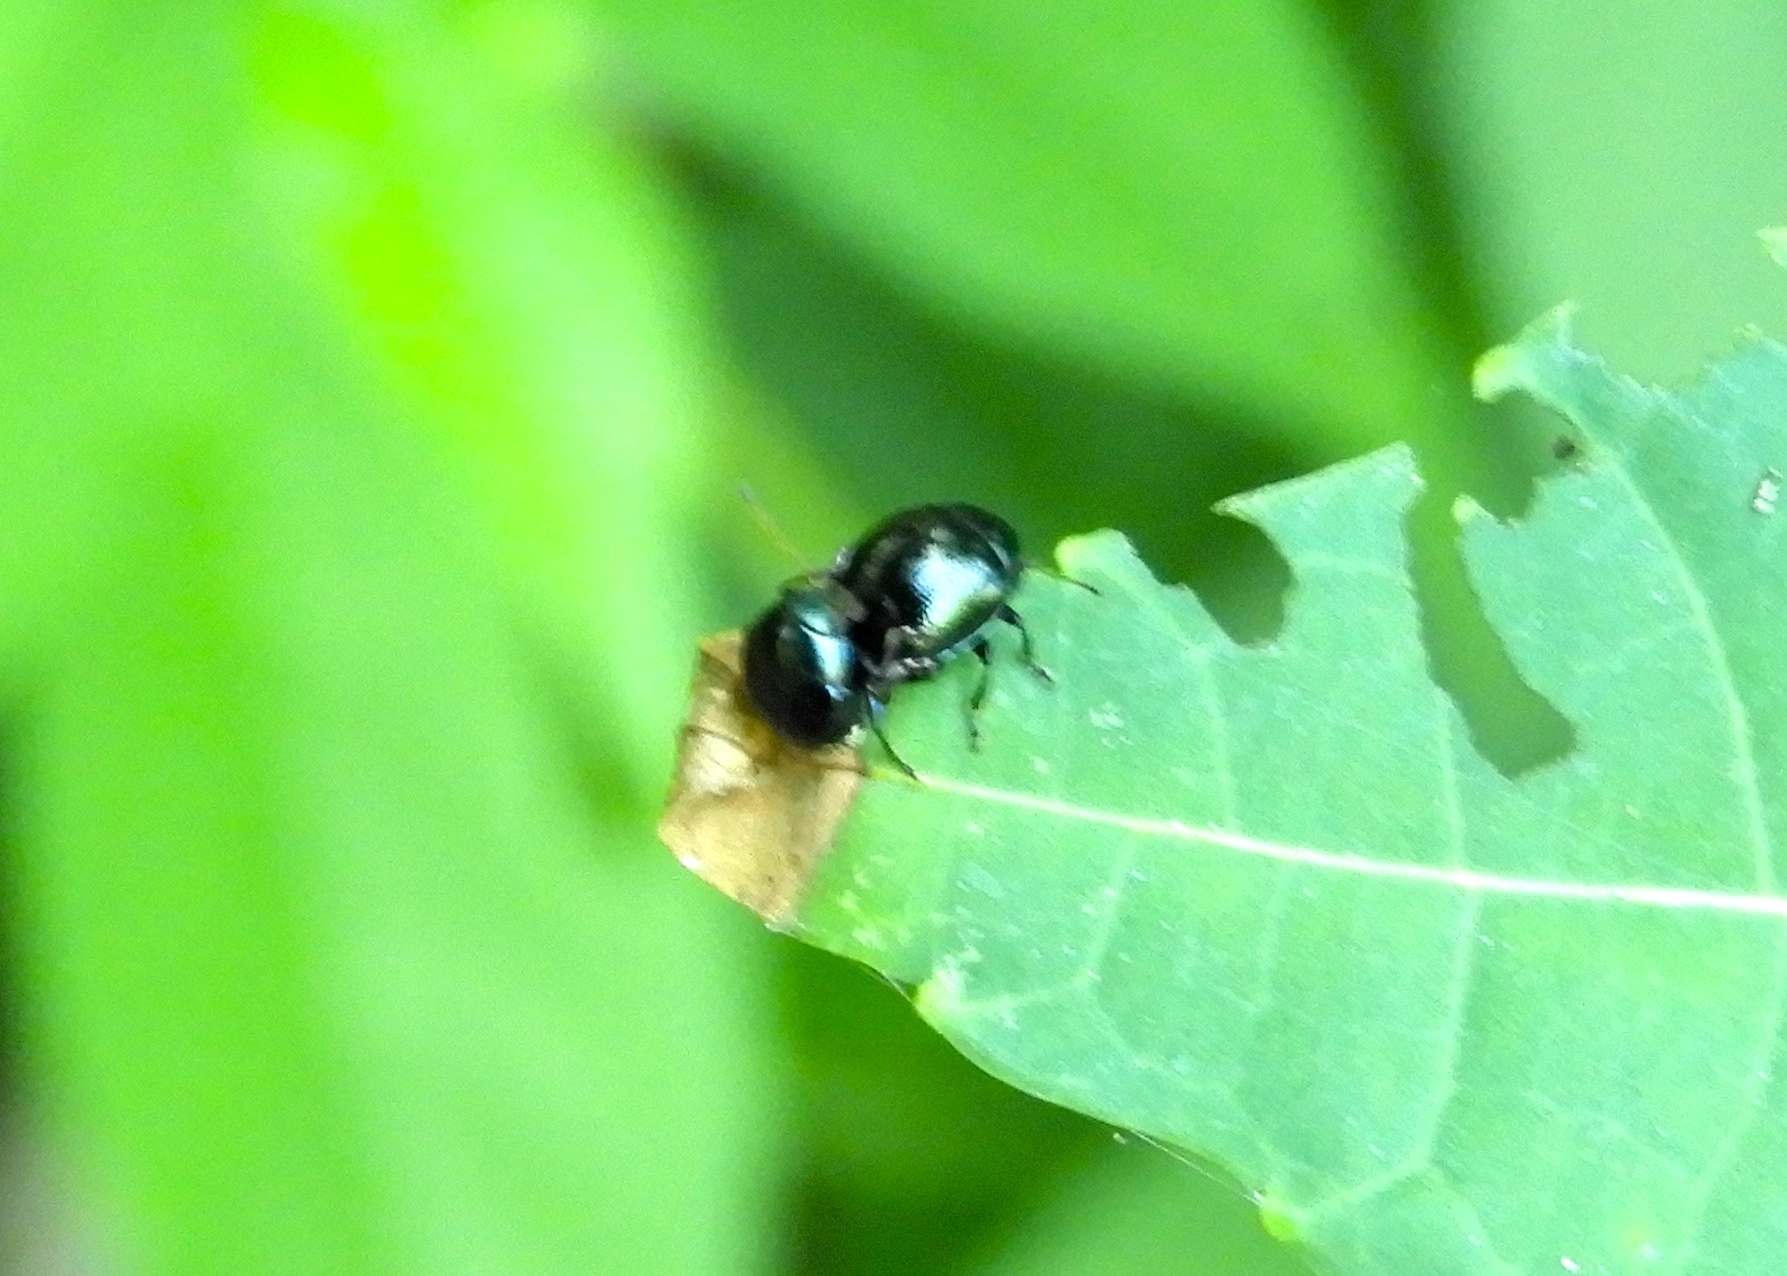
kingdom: Animalia
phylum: Arthropoda
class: Insecta
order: Coleoptera
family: Chrysomelidae
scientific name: Chrysomelidae
